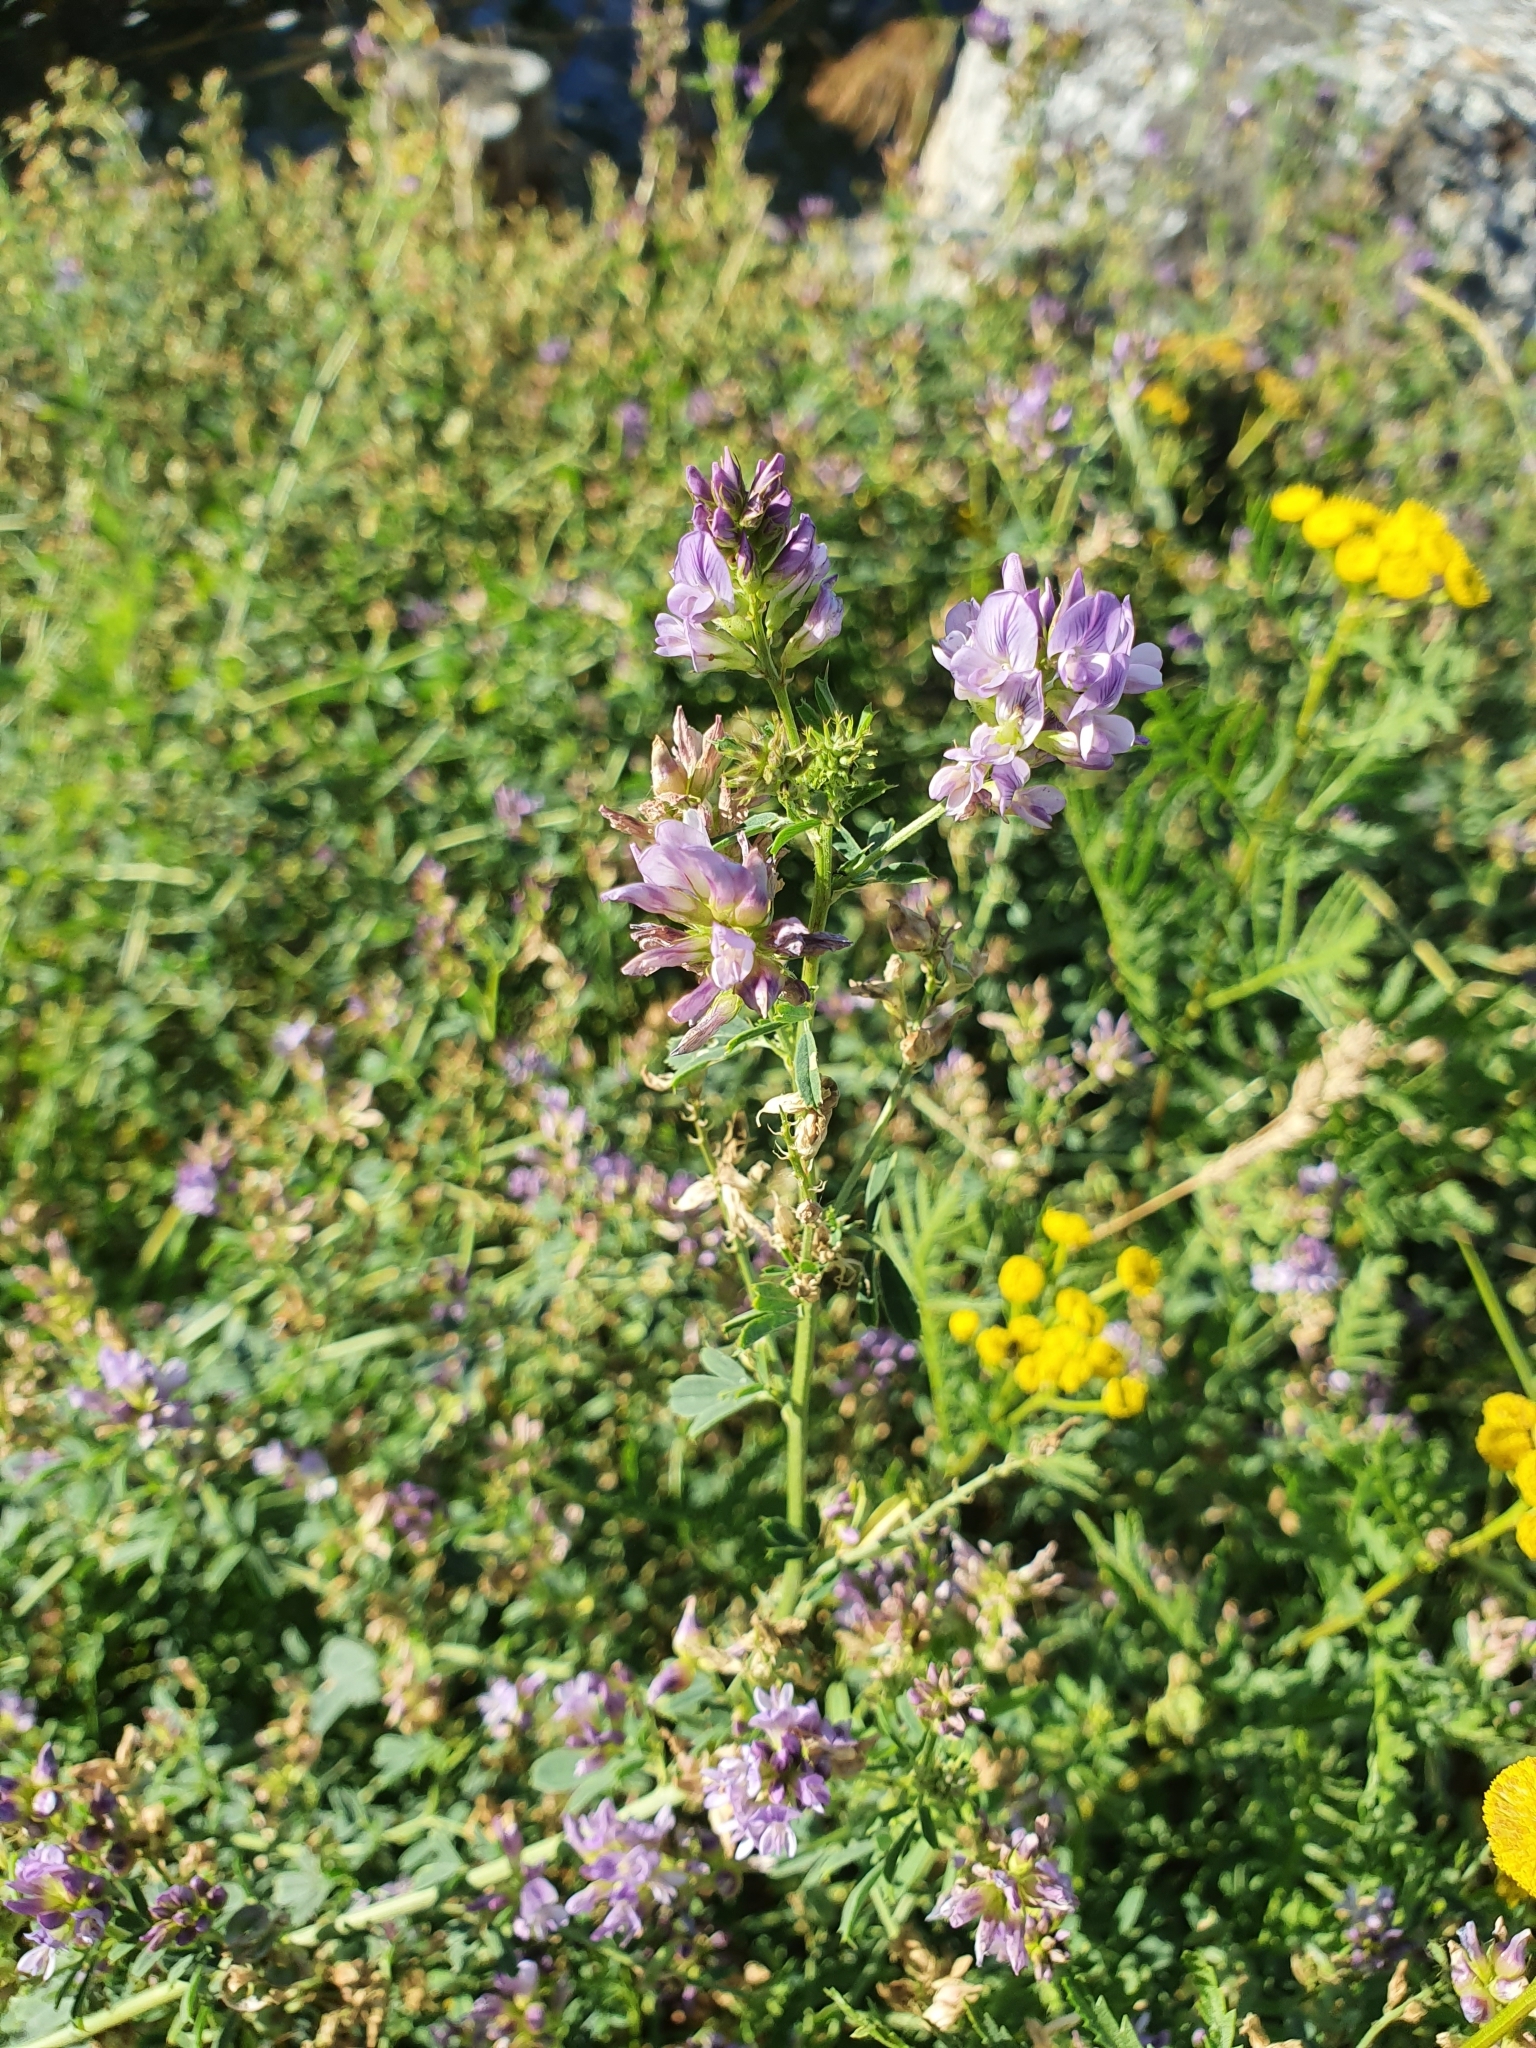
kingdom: Plantae
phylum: Tracheophyta
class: Magnoliopsida
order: Fabales
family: Fabaceae
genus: Medicago
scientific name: Medicago sativa
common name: Alfalfa
